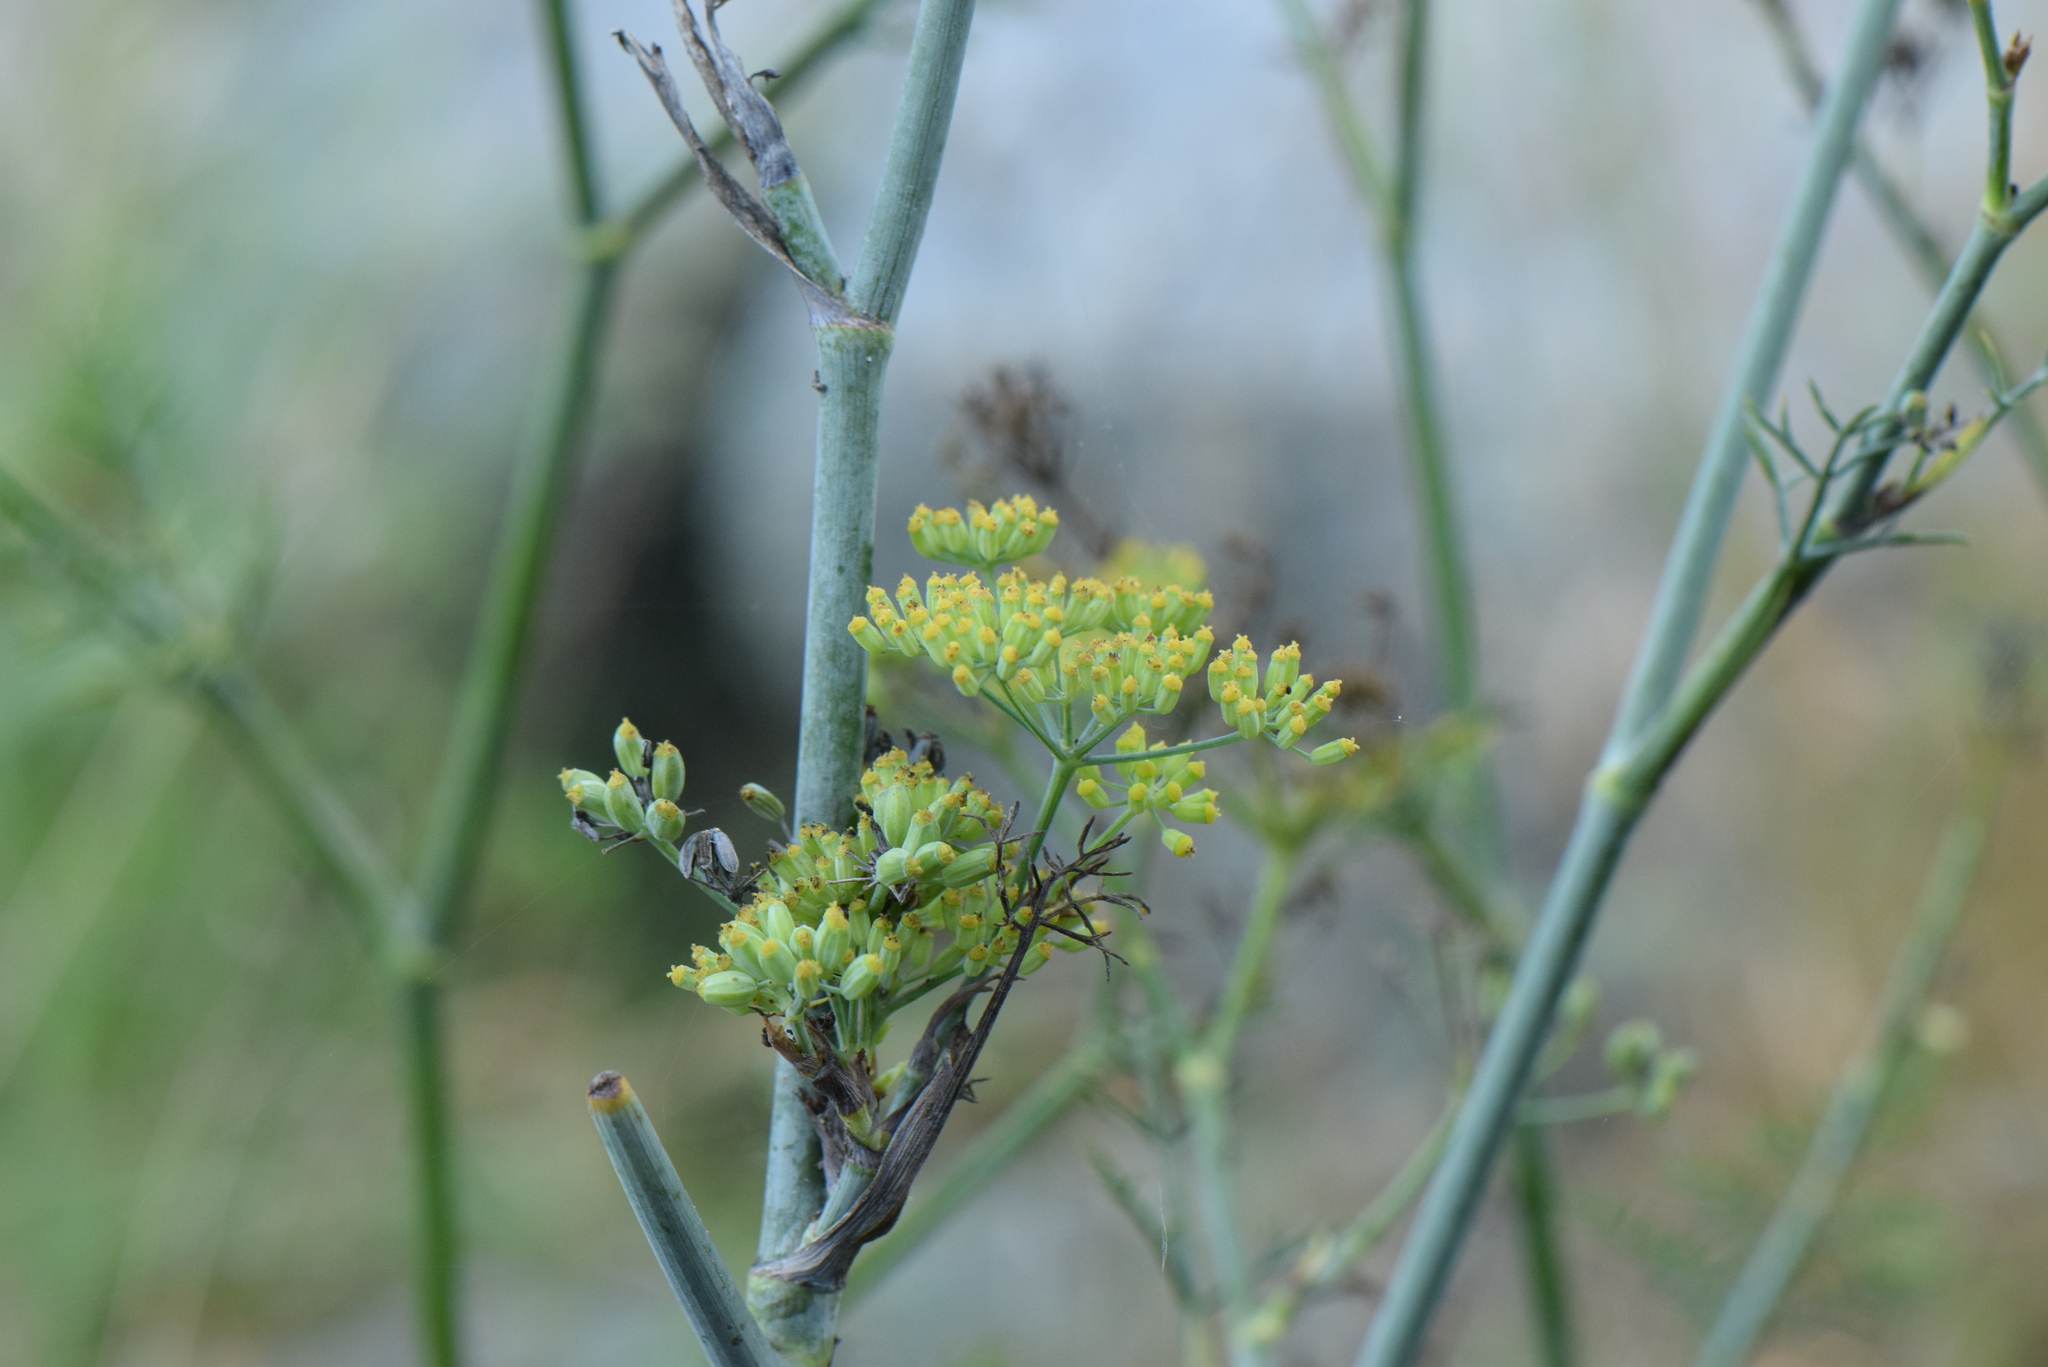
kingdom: Plantae
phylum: Tracheophyta
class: Magnoliopsida
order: Apiales
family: Apiaceae
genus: Foeniculum
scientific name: Foeniculum vulgare
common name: Fennel
